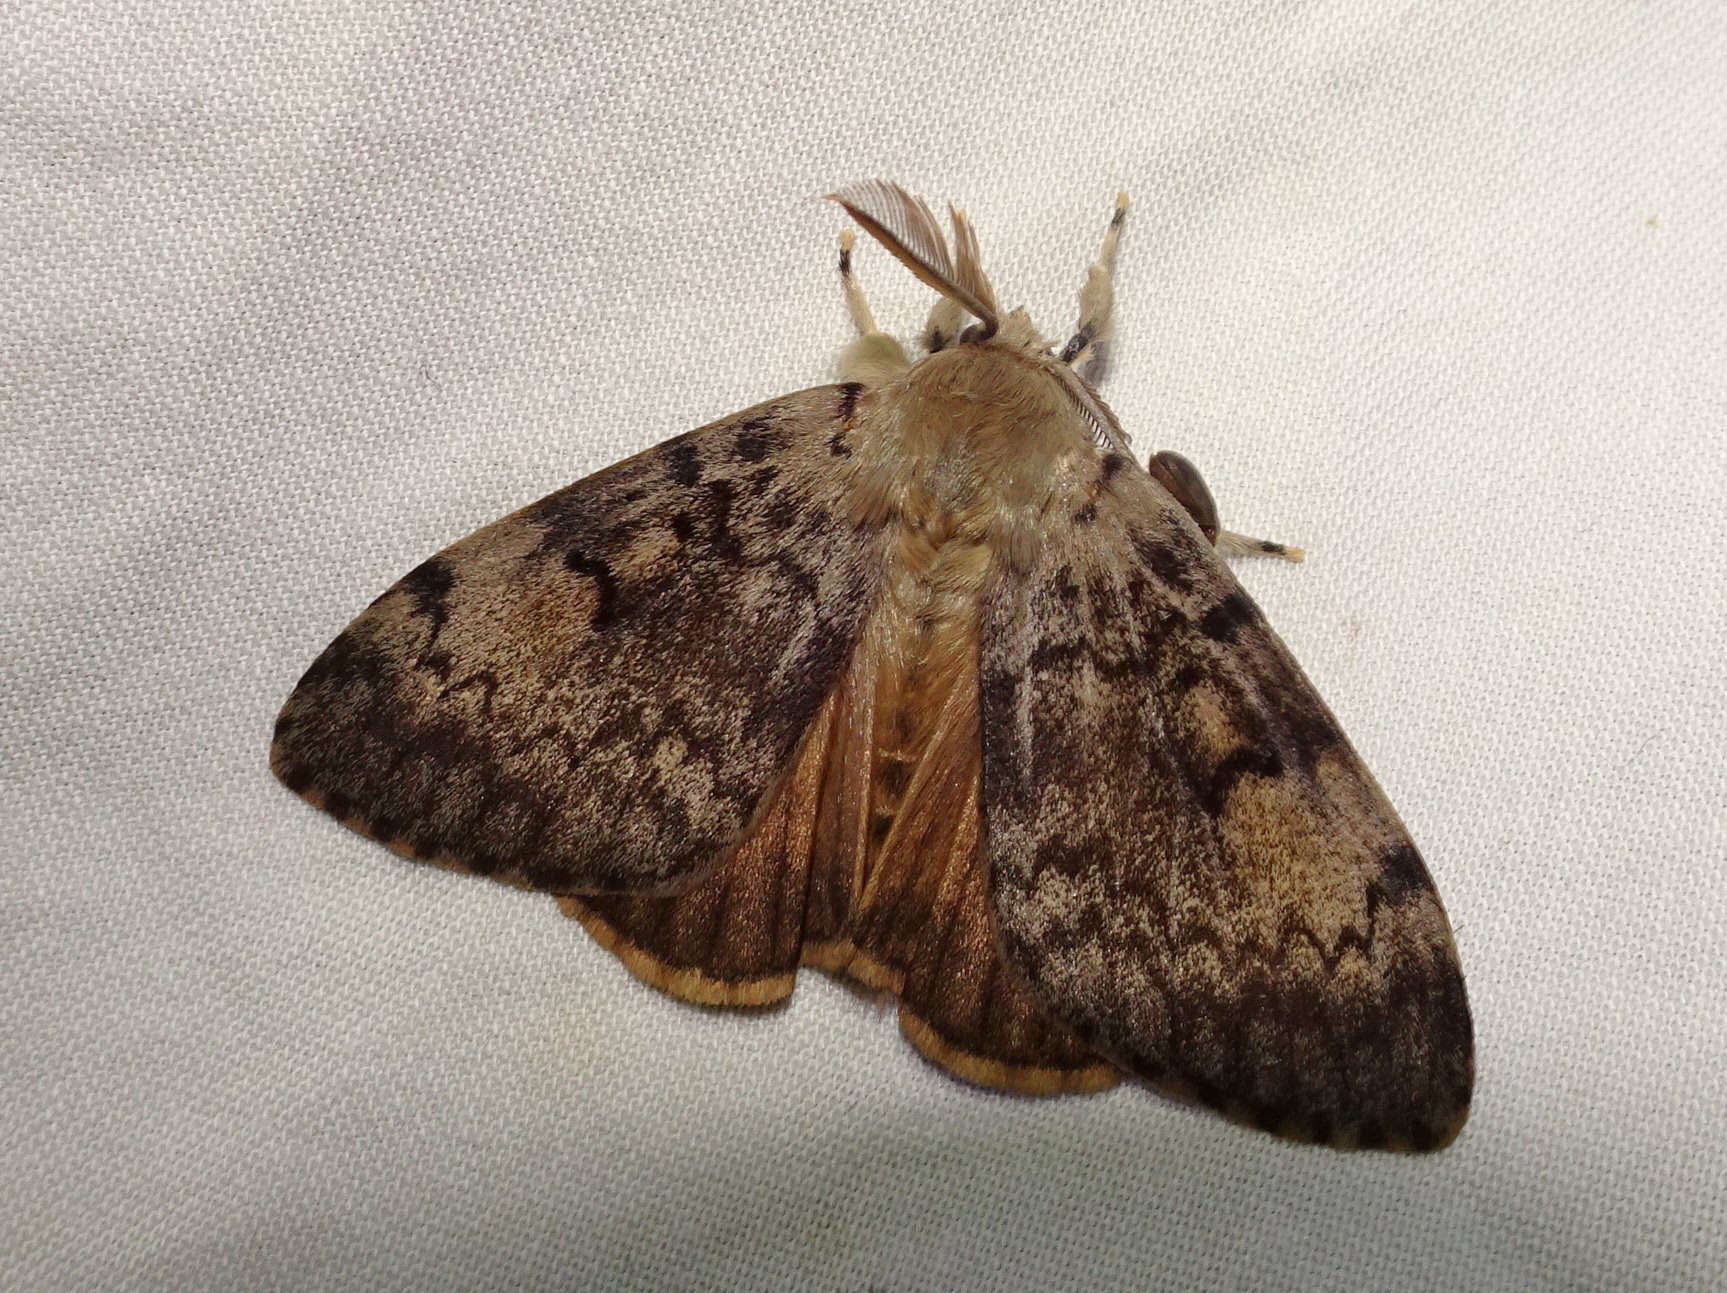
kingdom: Animalia
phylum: Arthropoda
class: Insecta
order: Lepidoptera
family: Erebidae
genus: Lymantria
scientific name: Lymantria dispar
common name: Gypsy moth
